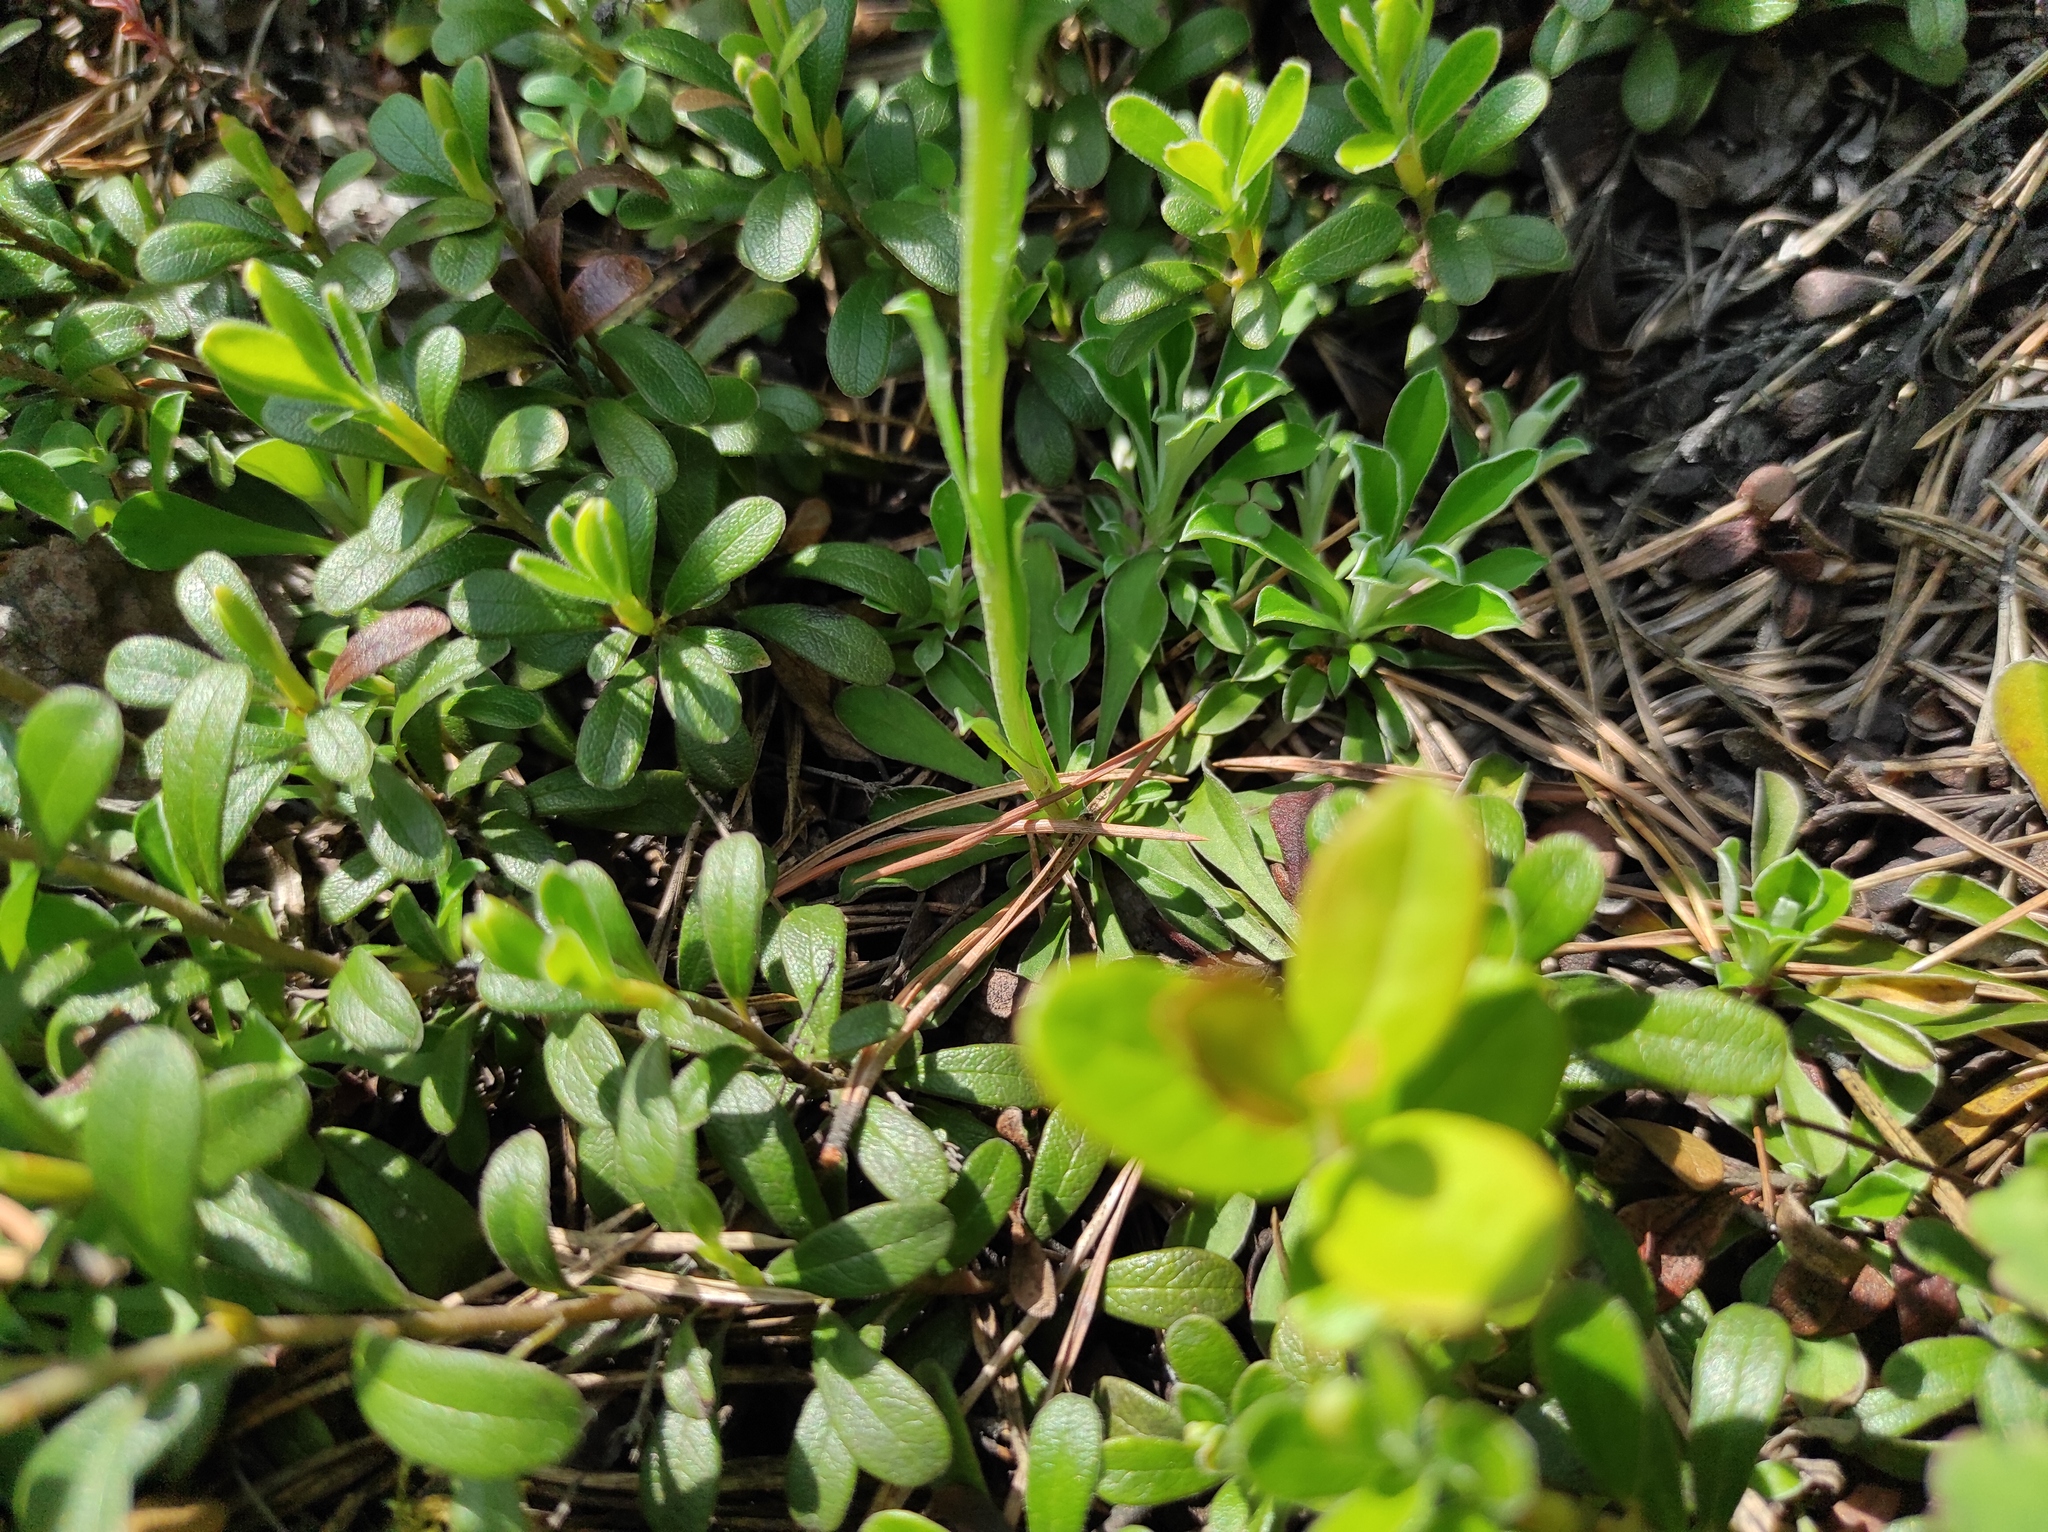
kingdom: Plantae
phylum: Tracheophyta
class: Magnoliopsida
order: Ericales
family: Ericaceae
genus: Arctostaphylos
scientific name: Arctostaphylos uva-ursi
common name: Bearberry
